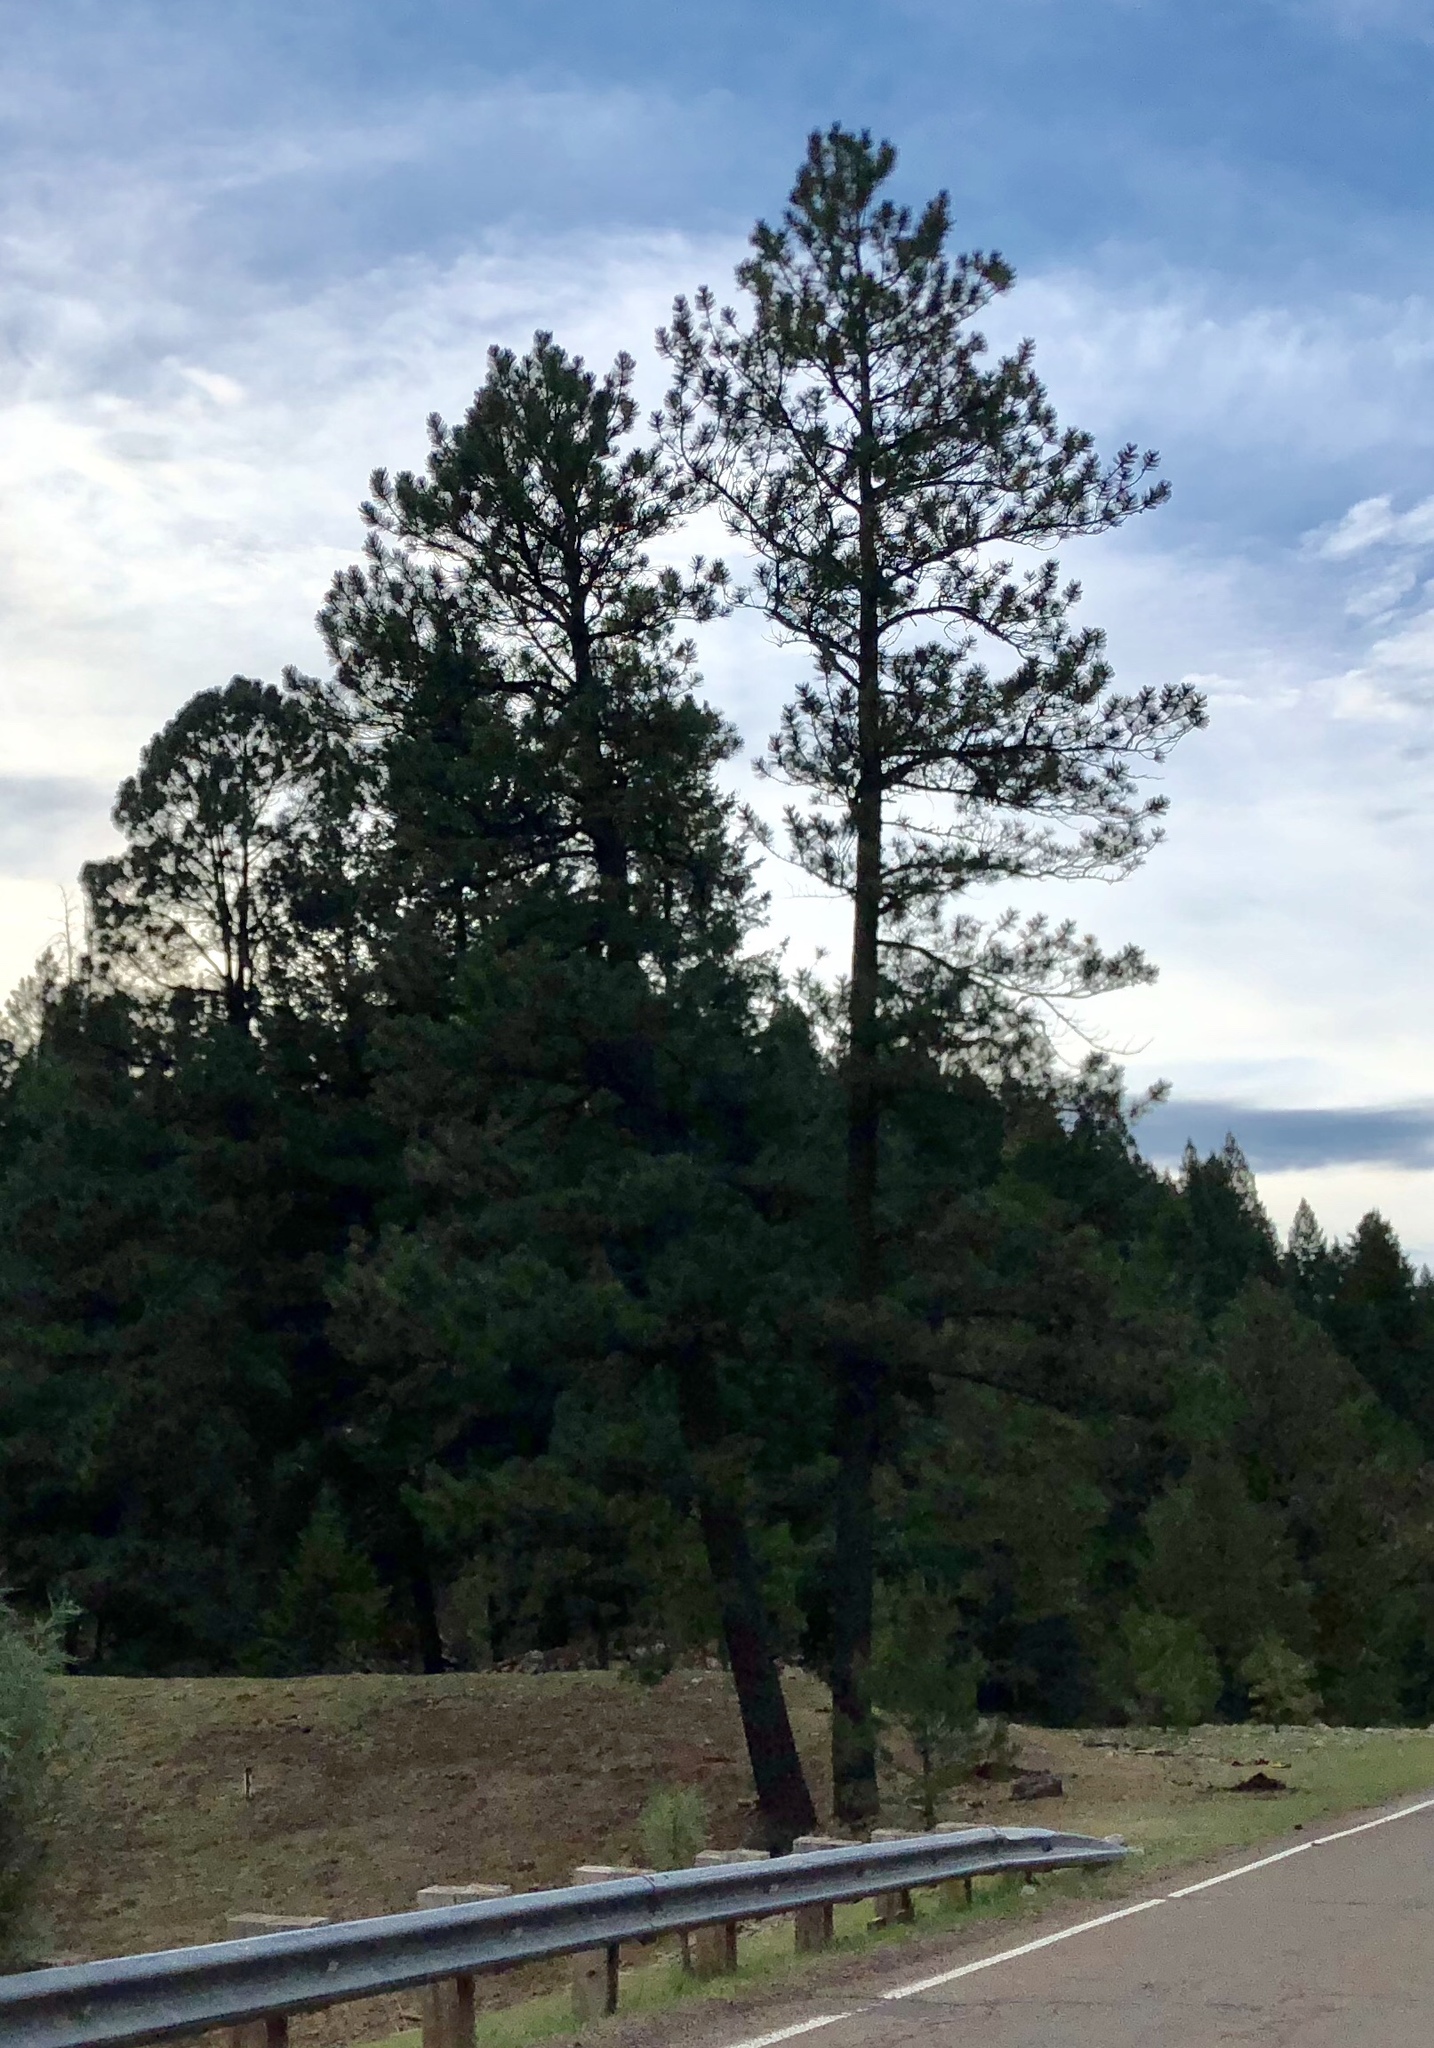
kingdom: Plantae
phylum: Tracheophyta
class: Pinopsida
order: Pinales
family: Pinaceae
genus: Pinus
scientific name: Pinus ponderosa
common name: Western yellow-pine
